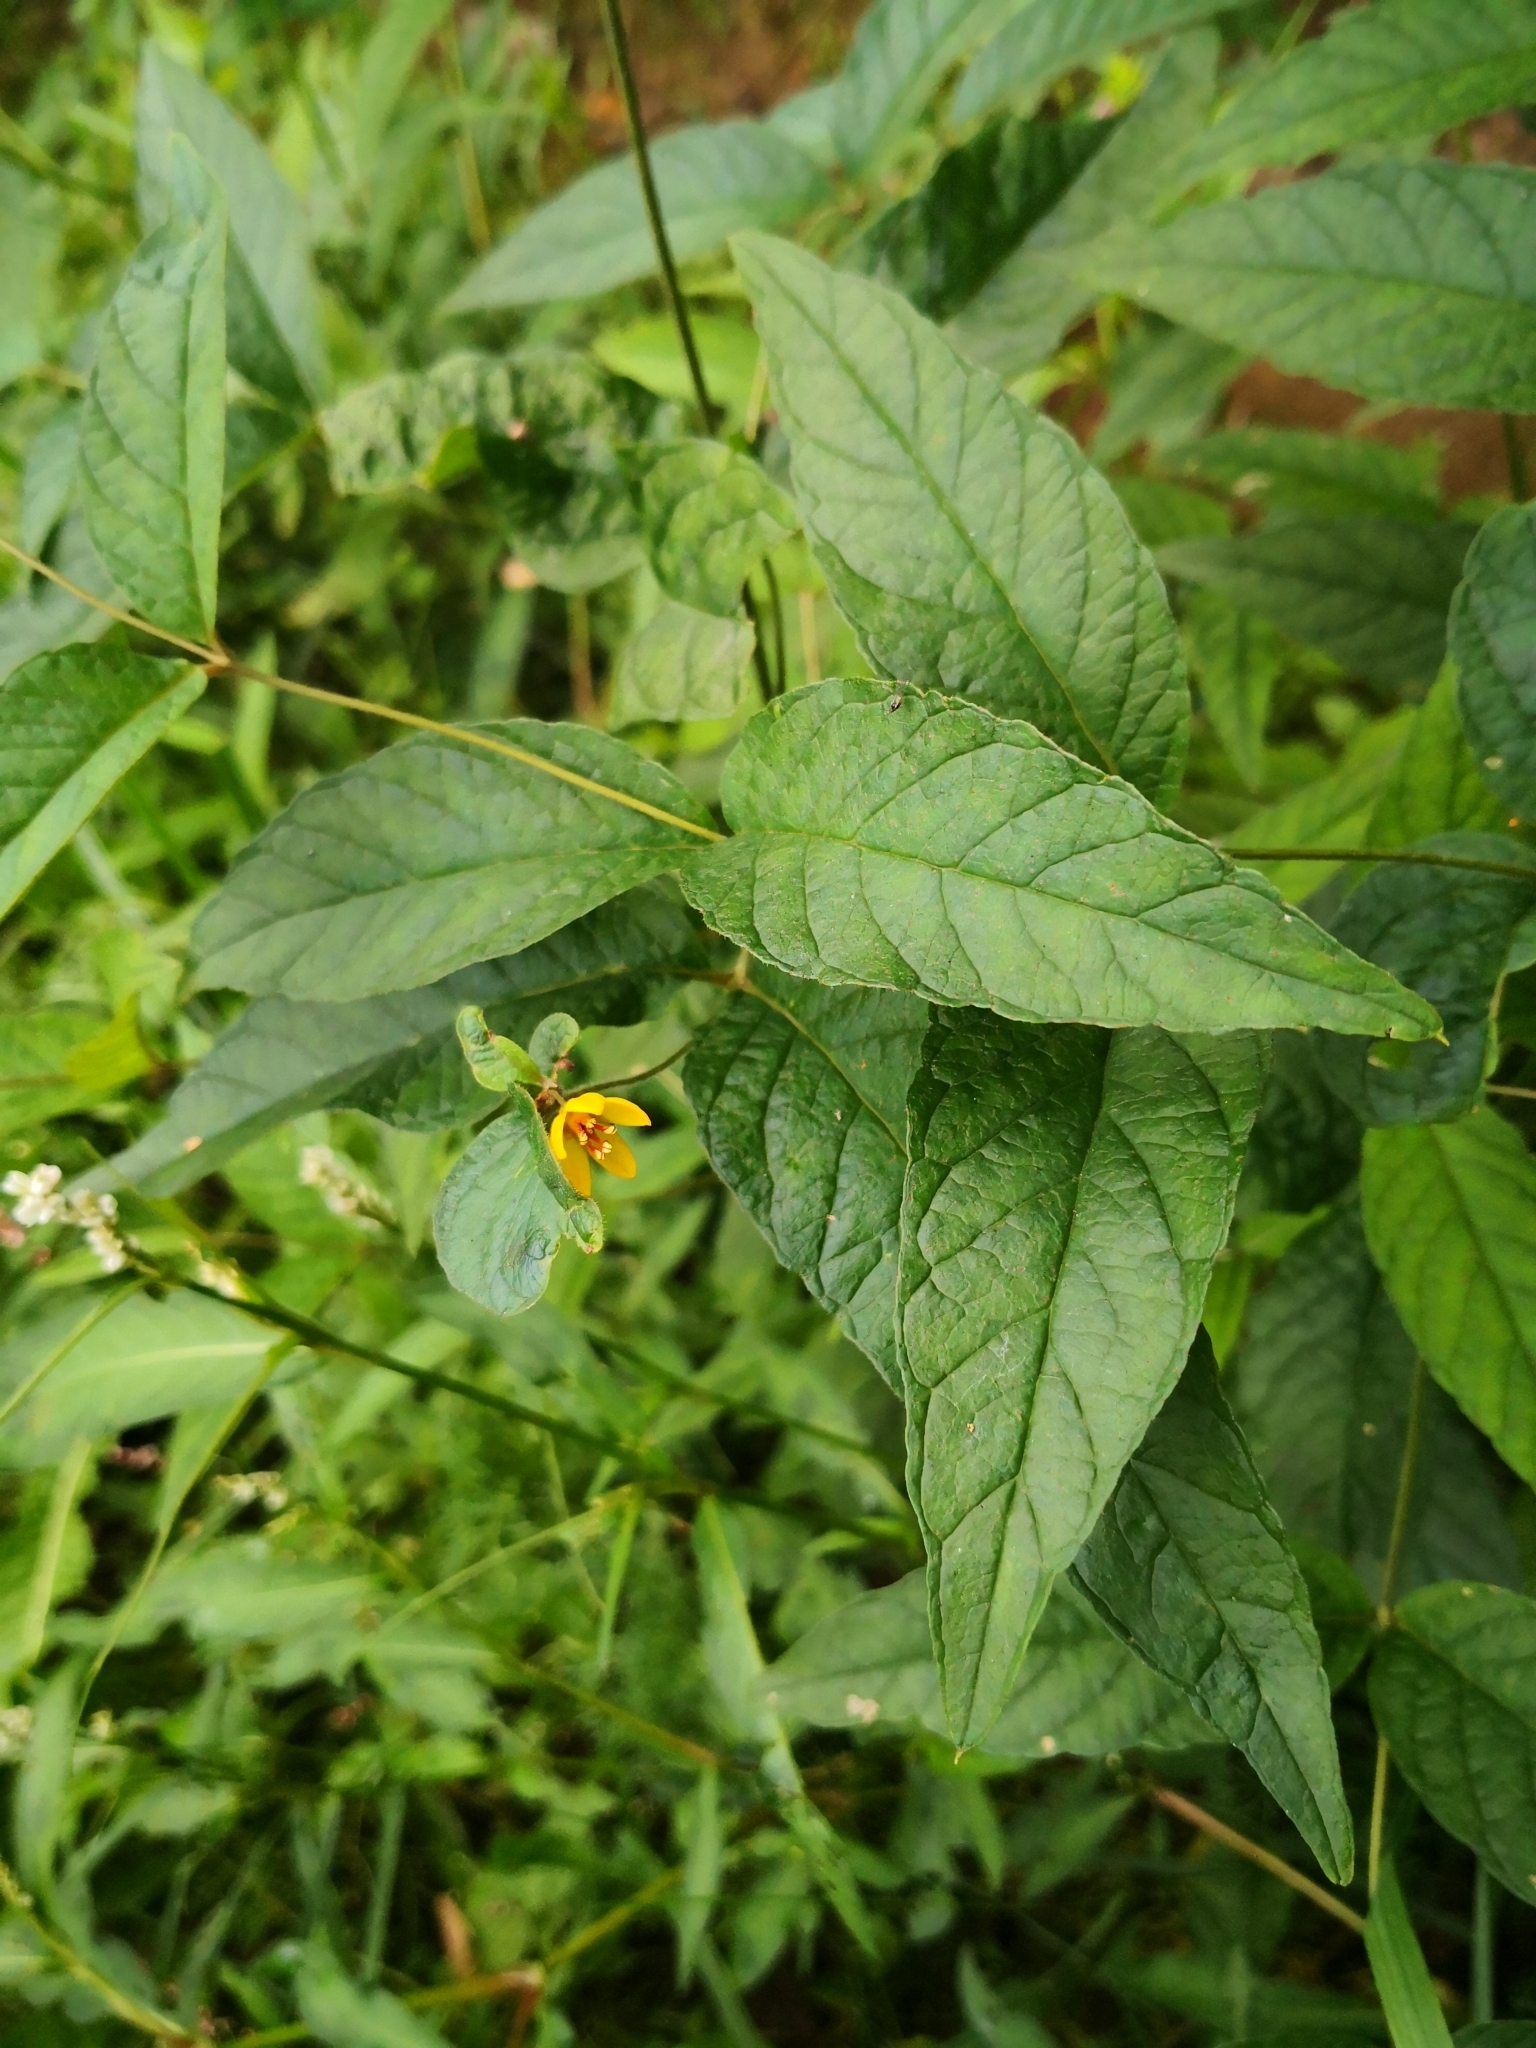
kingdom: Plantae
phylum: Tracheophyta
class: Magnoliopsida
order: Ericales
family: Primulaceae
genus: Lysimachia
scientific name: Lysimachia vulgaris
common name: Yellow loosestrife
